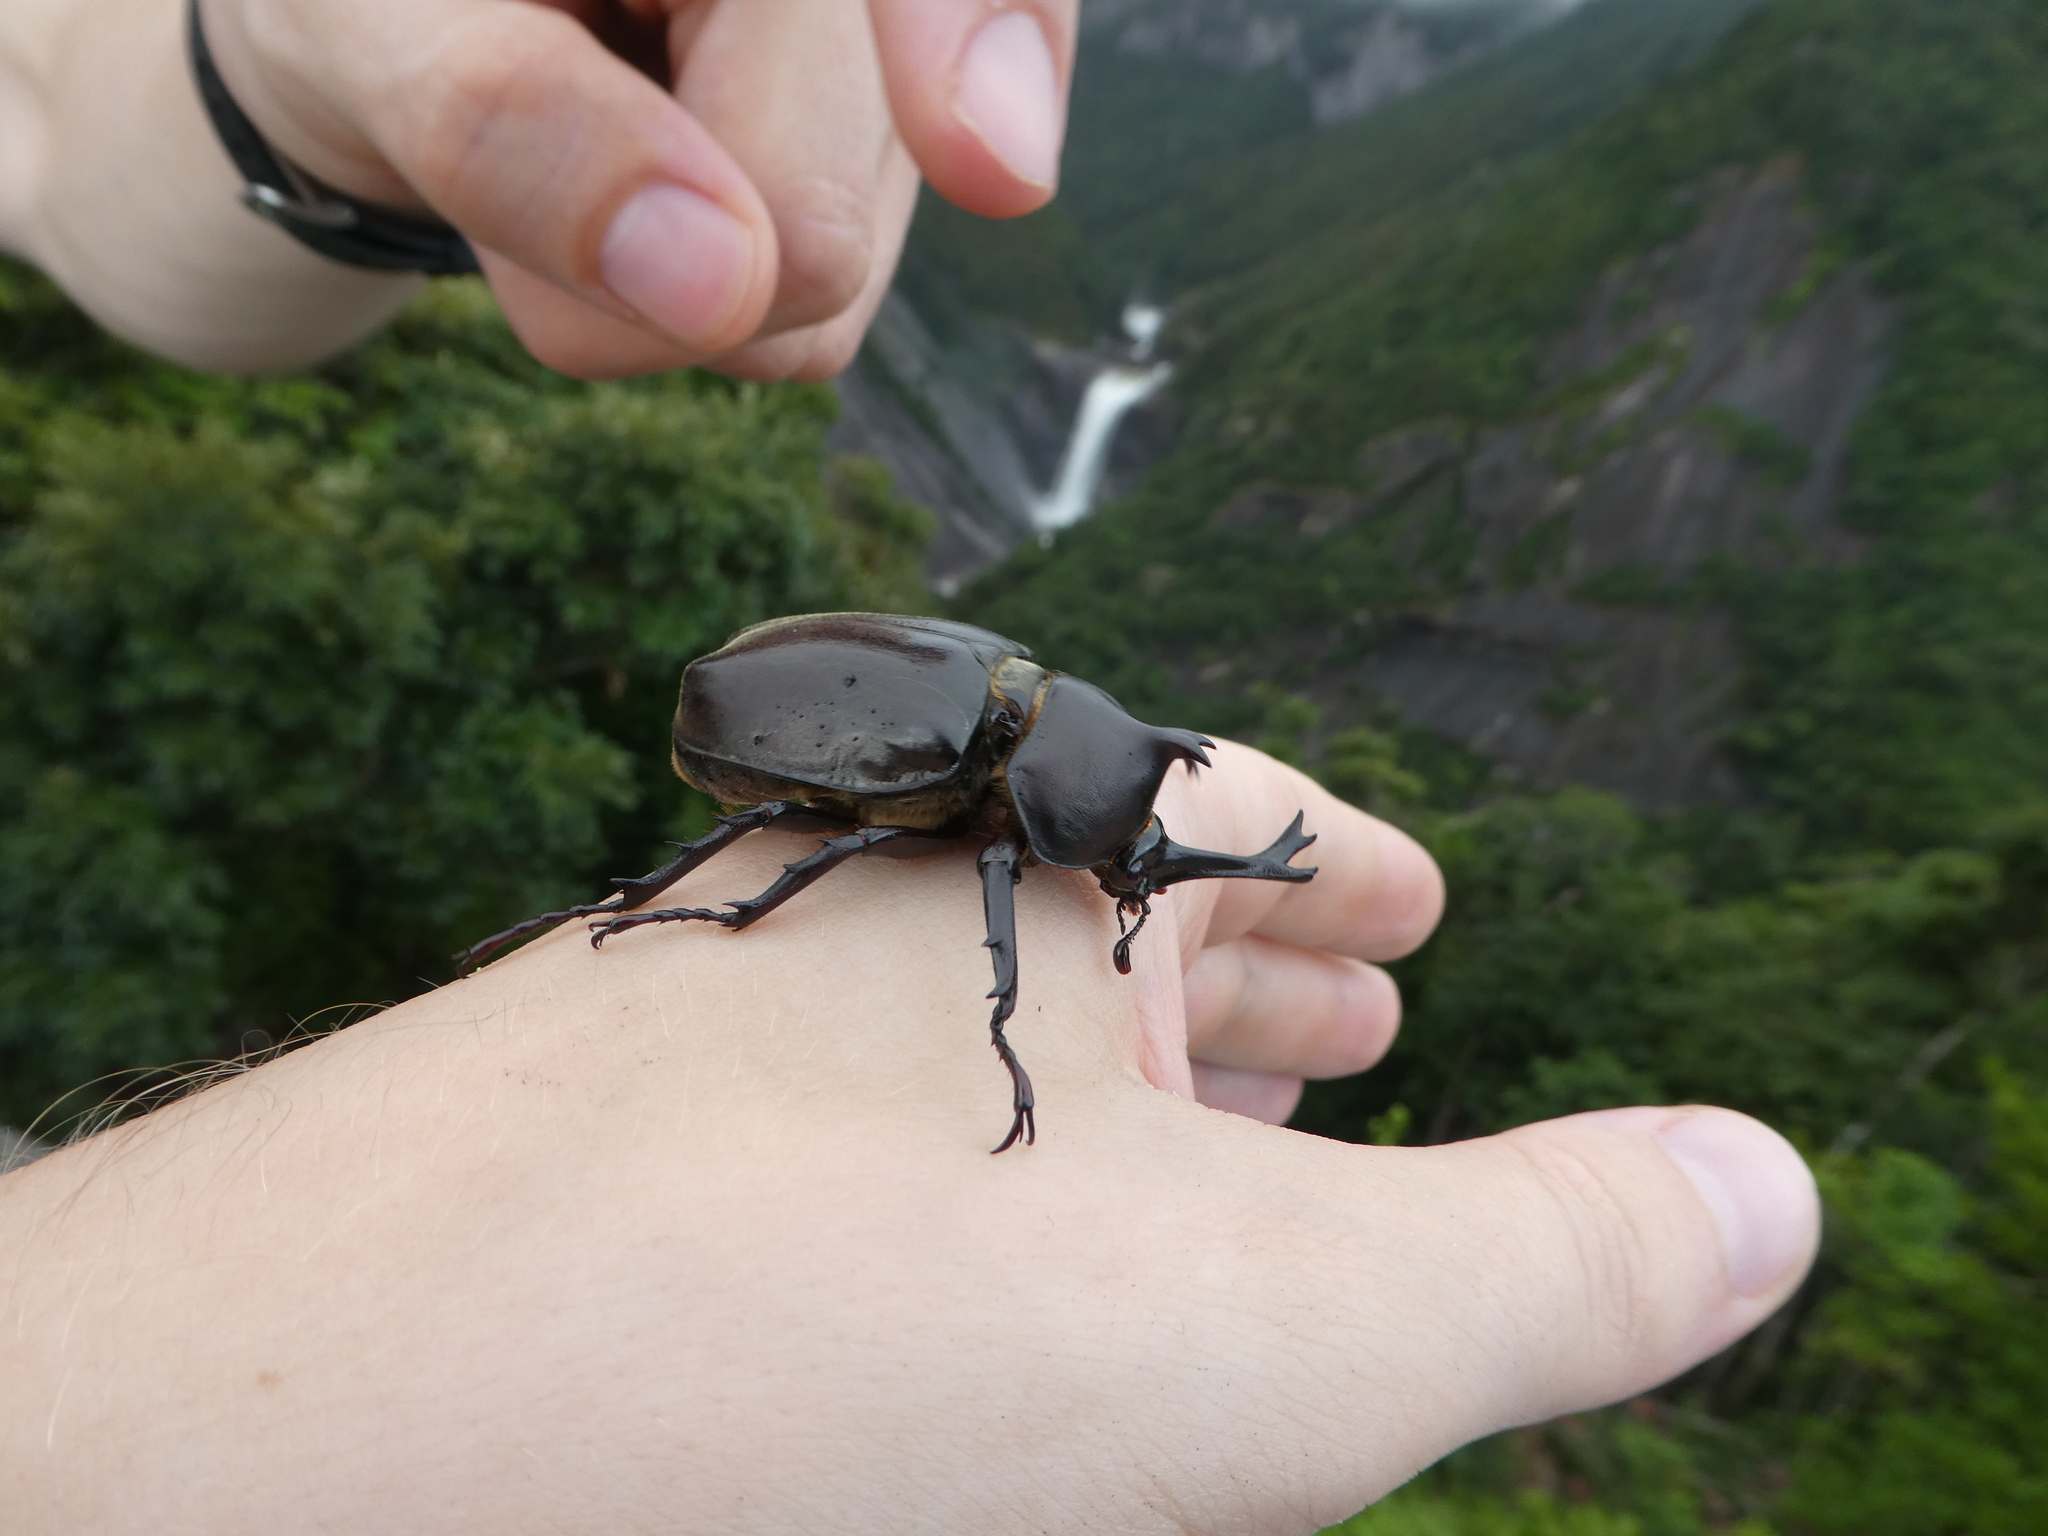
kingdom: Animalia
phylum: Arthropoda
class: Insecta
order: Coleoptera
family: Scarabaeidae
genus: Trypoxylus
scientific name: Trypoxylus dichotomus
